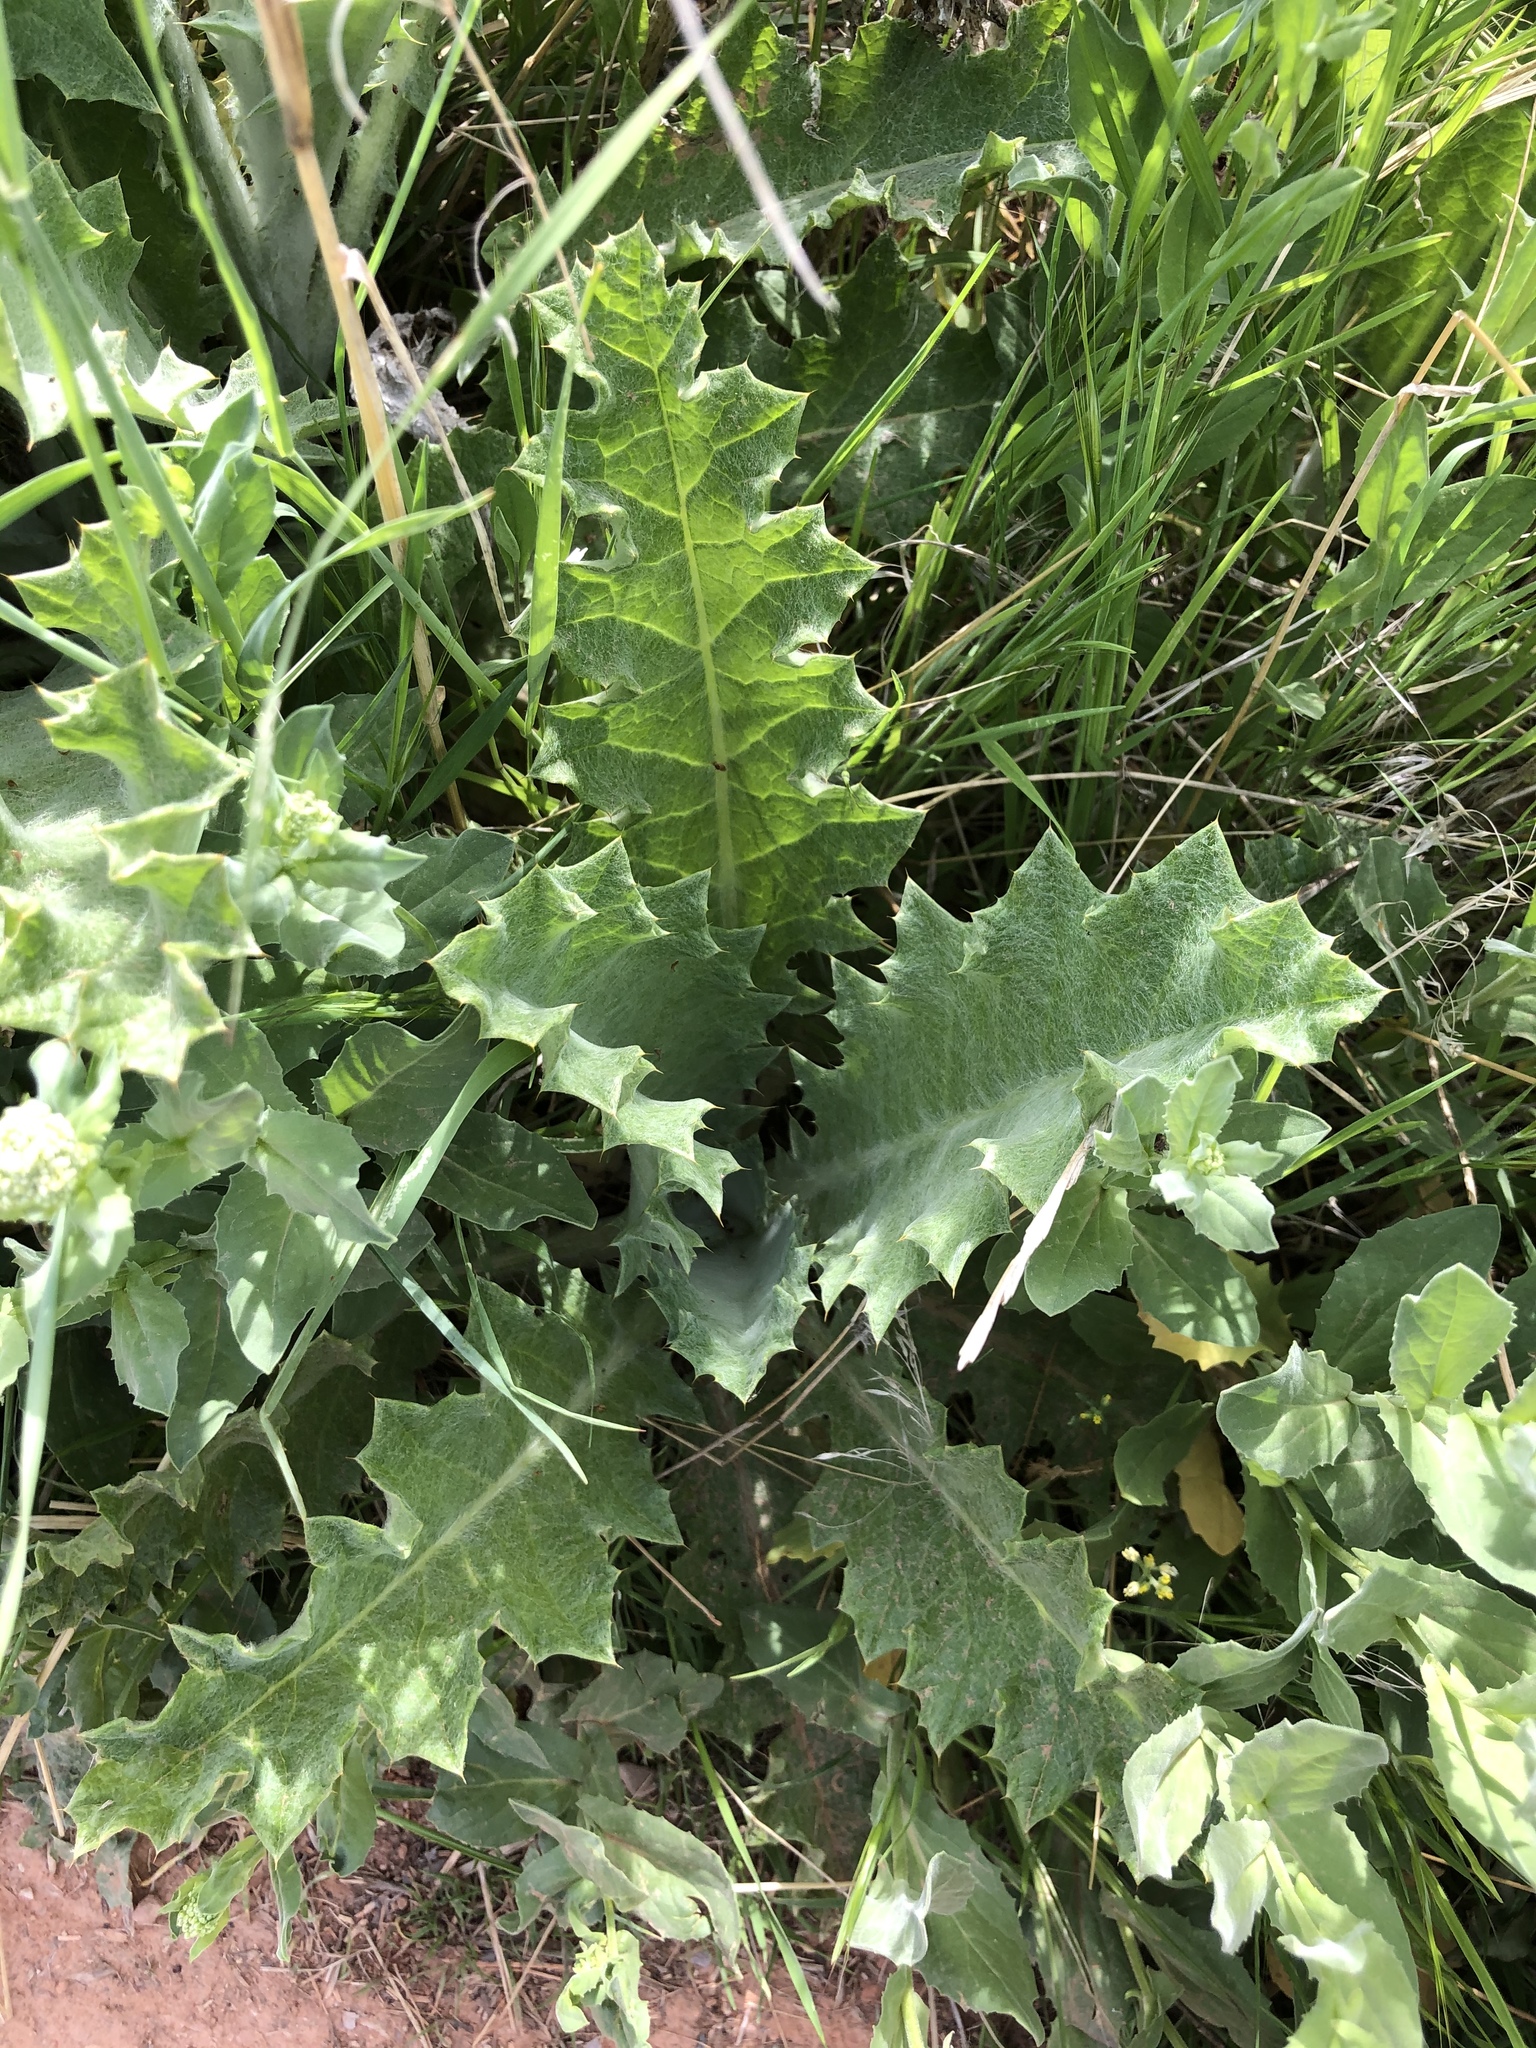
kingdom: Plantae
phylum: Tracheophyta
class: Magnoliopsida
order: Asterales
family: Asteraceae
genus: Onopordum
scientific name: Onopordum acanthium
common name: Scotch thistle
